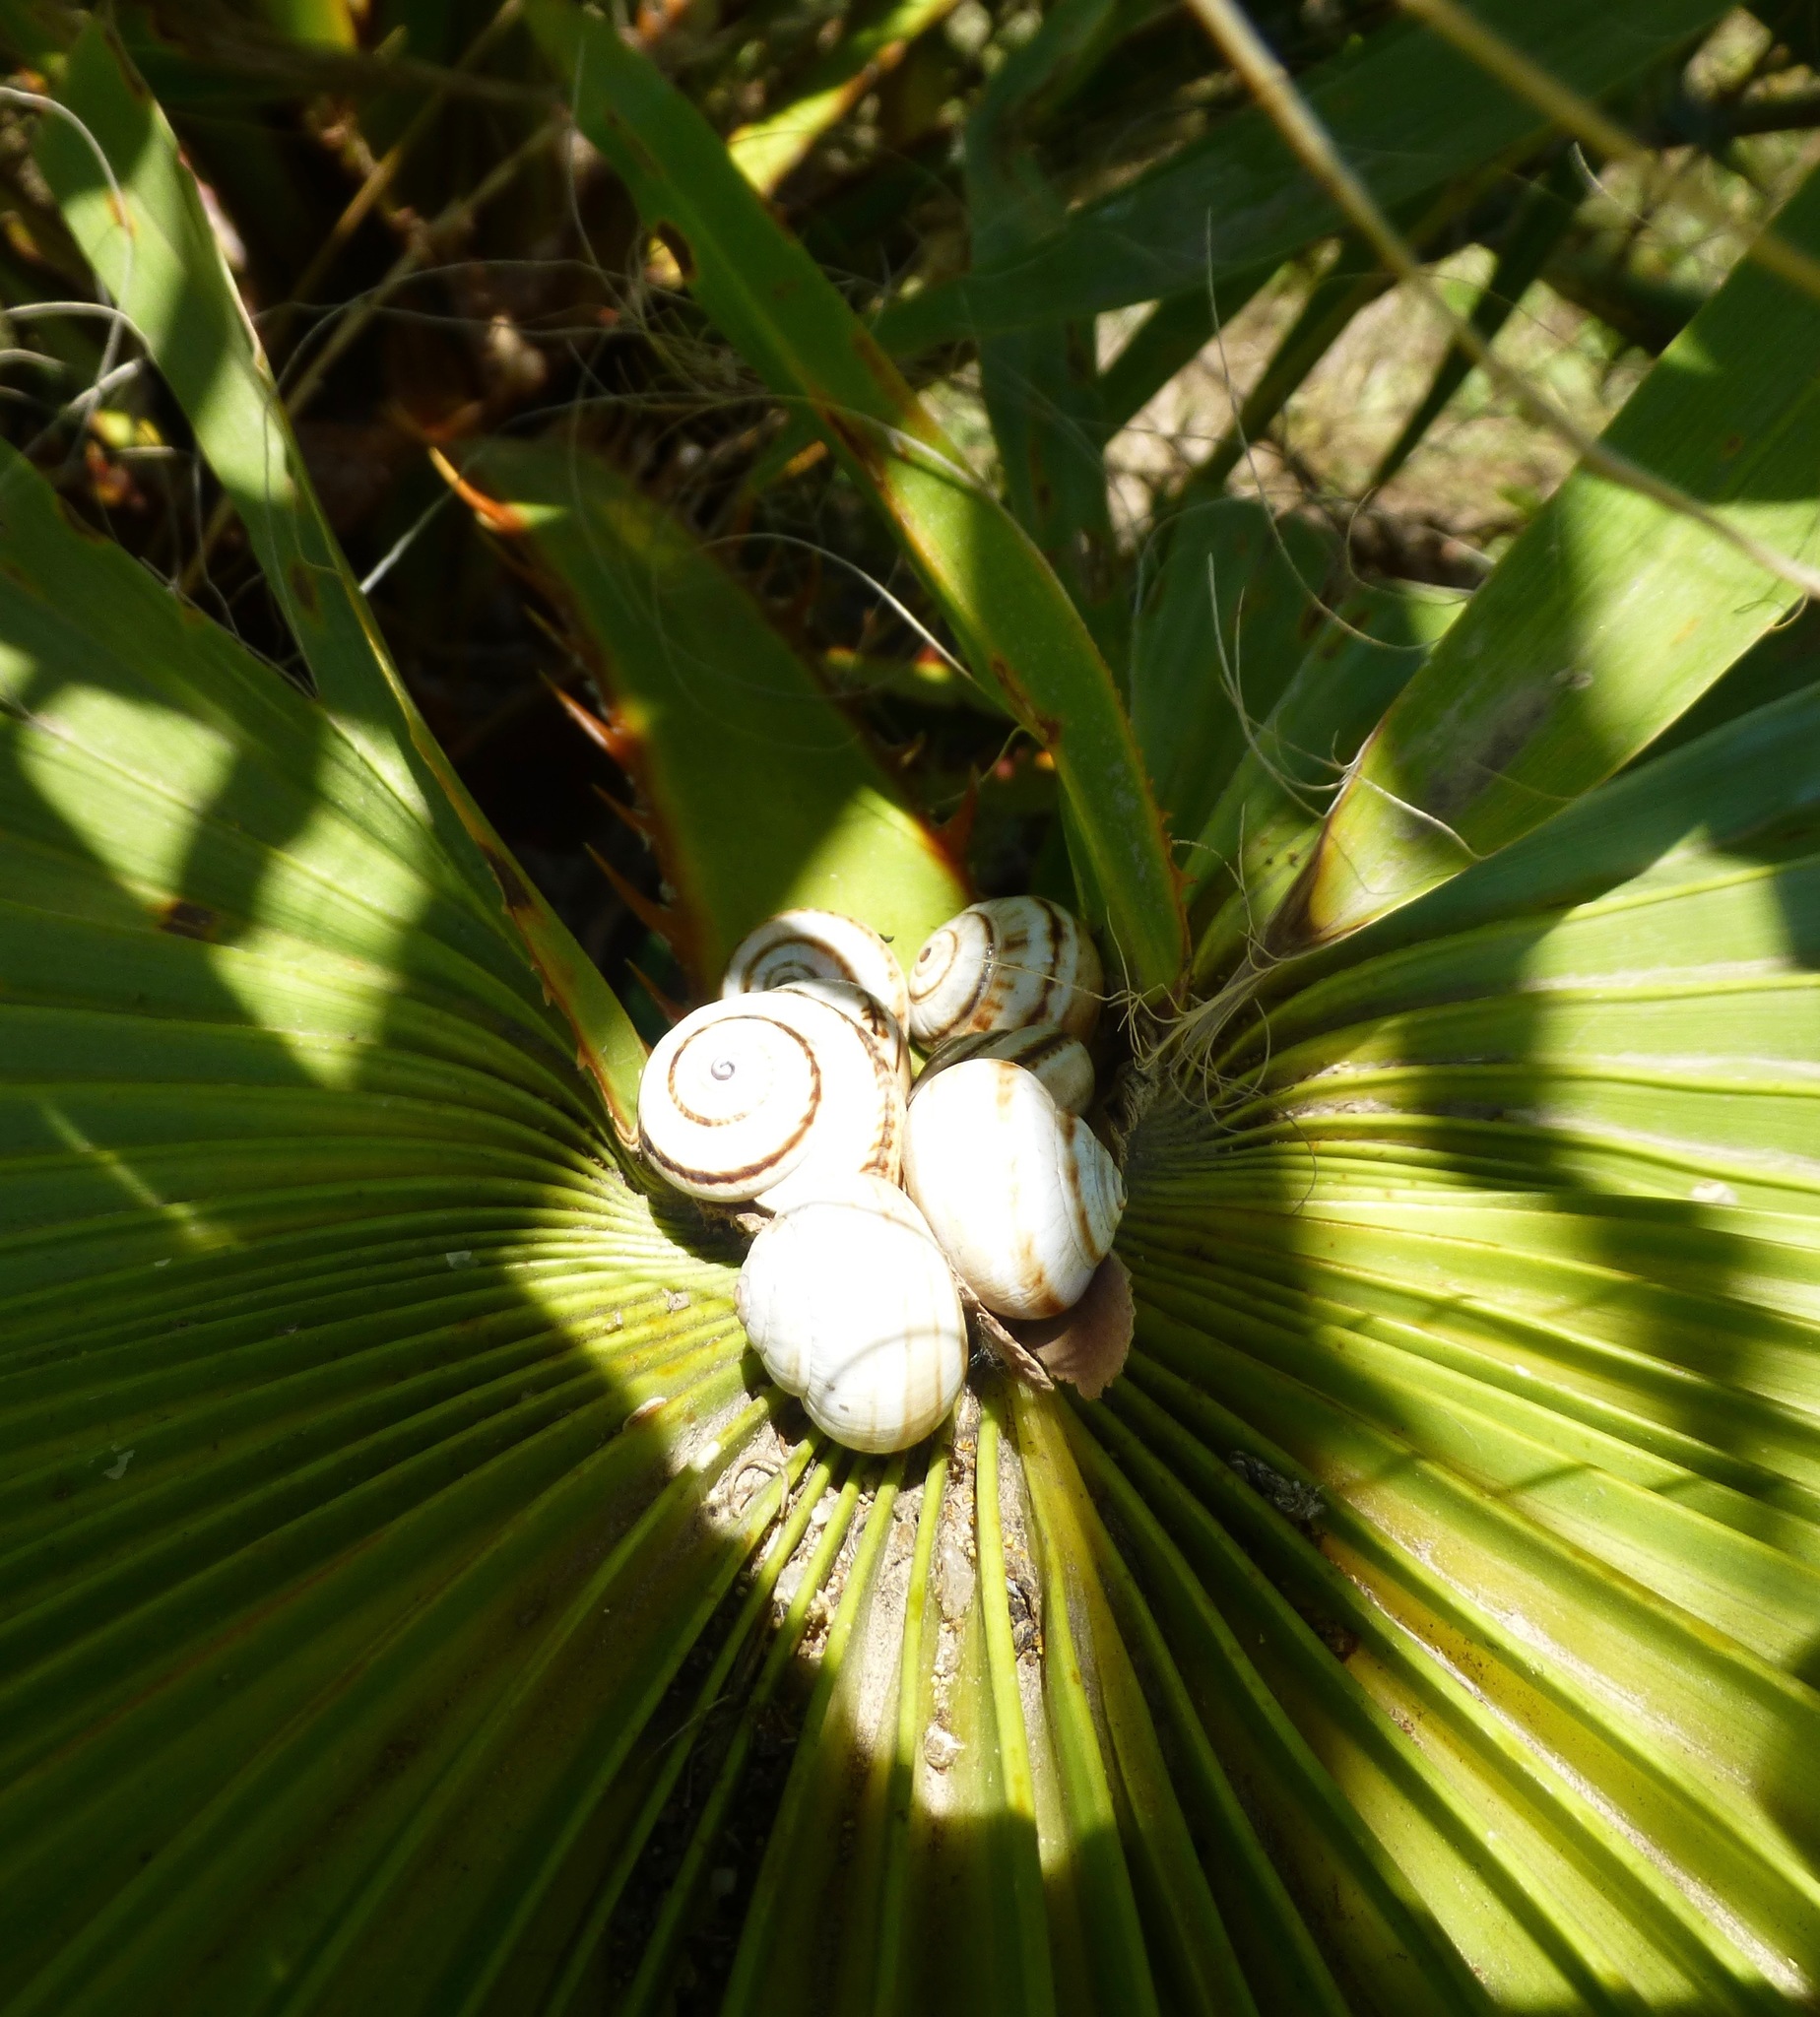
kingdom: Animalia
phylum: Mollusca
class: Gastropoda
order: Stylommatophora
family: Helicidae
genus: Theba
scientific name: Theba pisana
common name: White snail
